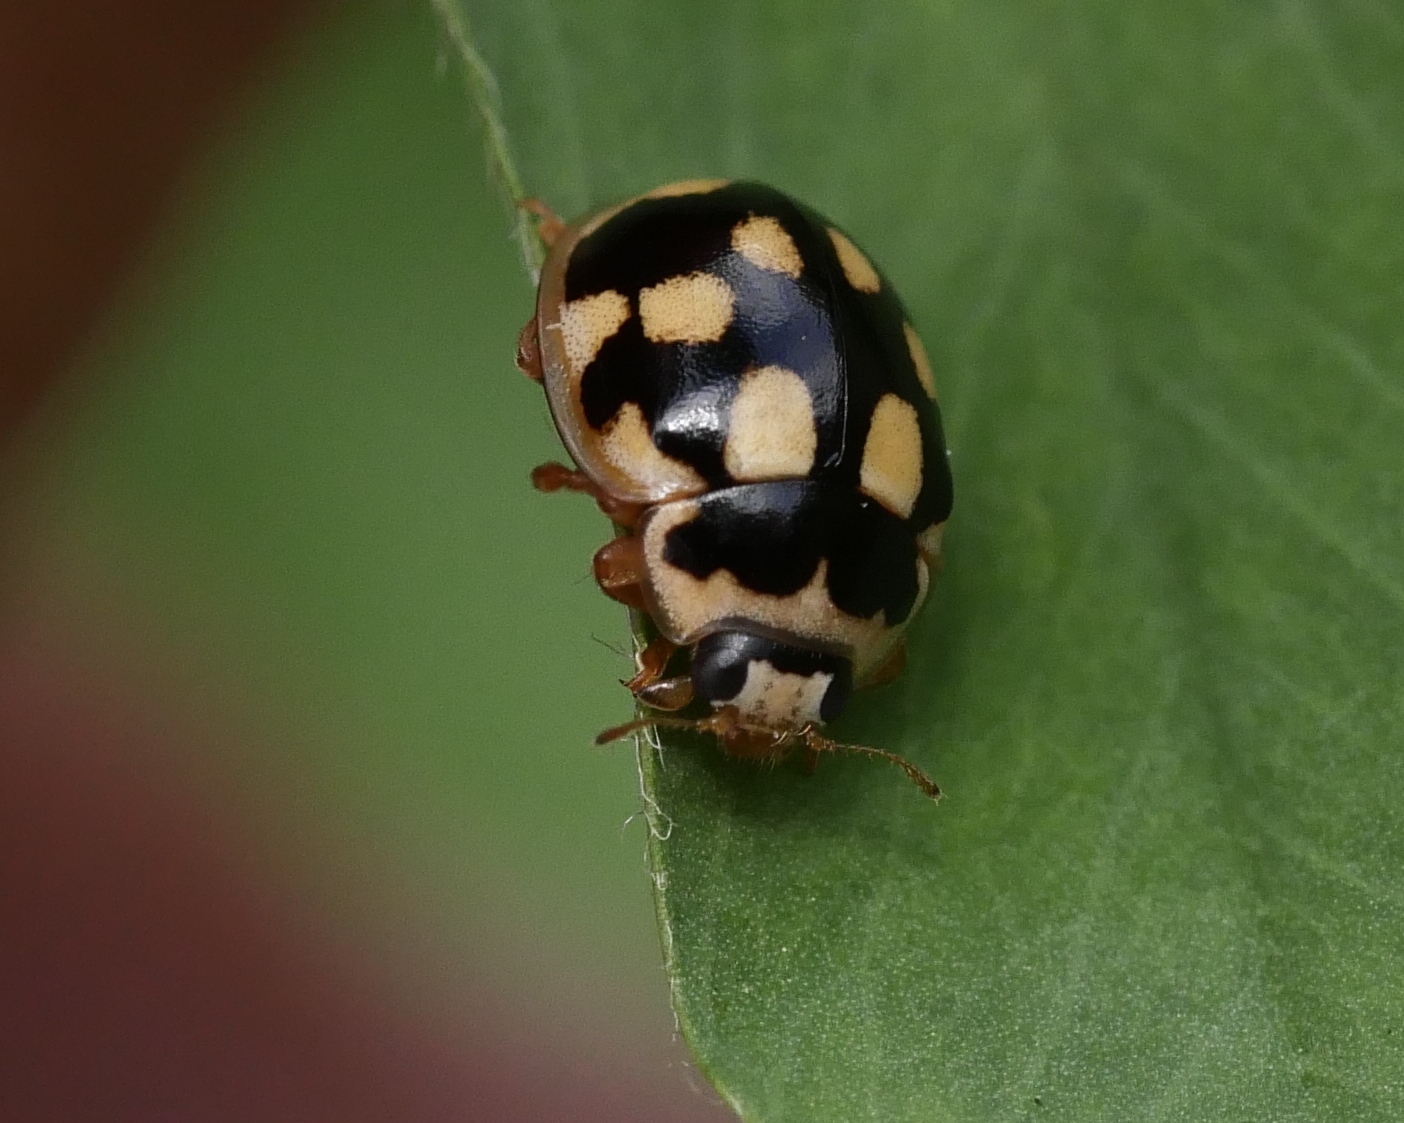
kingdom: Animalia
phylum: Arthropoda
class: Insecta
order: Coleoptera
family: Coccinellidae
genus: Propylaea
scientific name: Propylaea quatuordecimpunctata
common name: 14-spotted ladybird beetle
